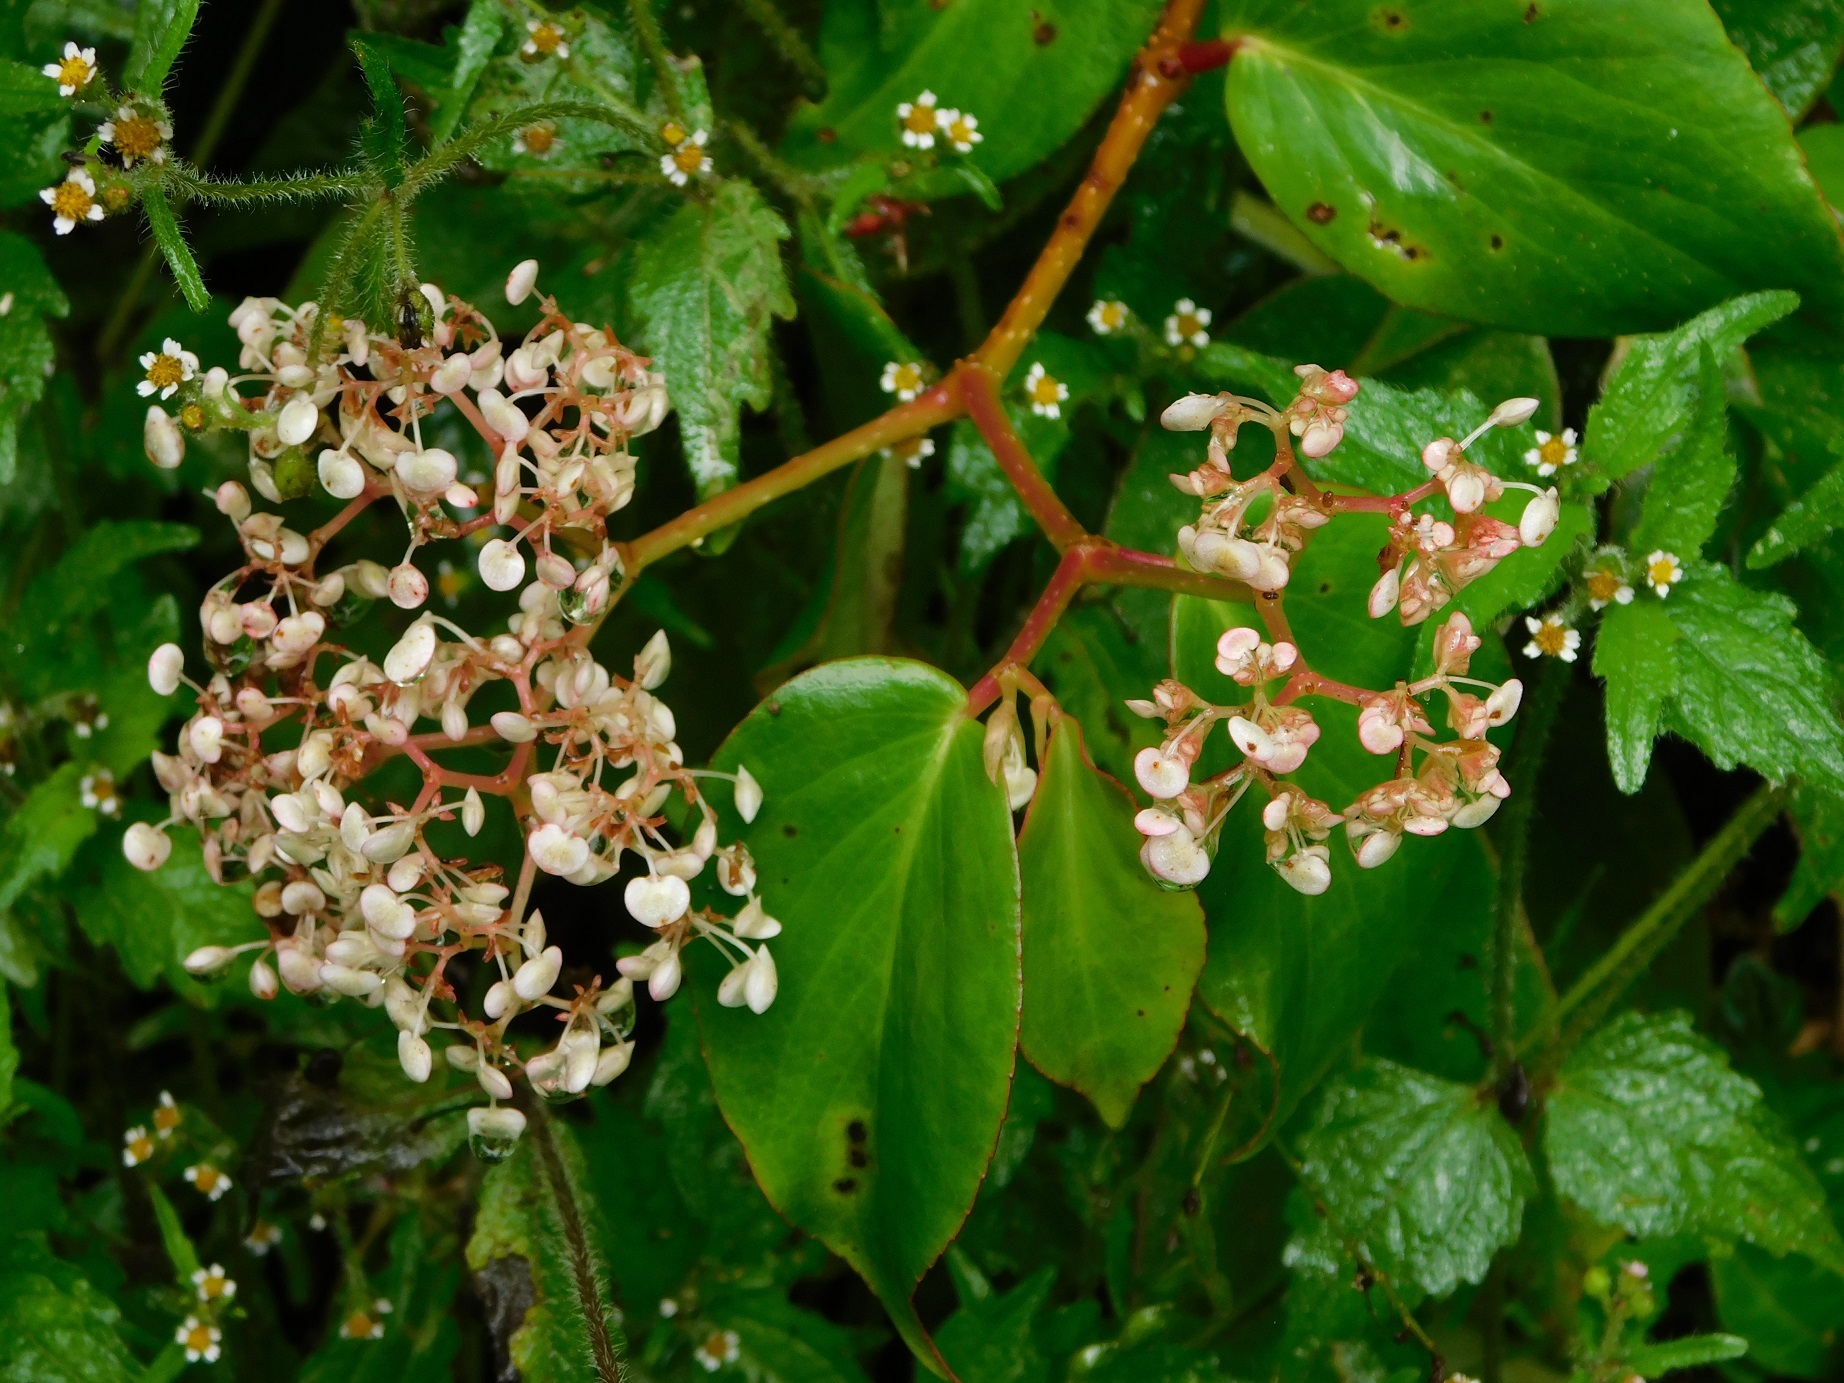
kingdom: Plantae
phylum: Tracheophyta
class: Magnoliopsida
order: Cucurbitales
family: Begoniaceae
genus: Begonia
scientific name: Begonia holtonis
